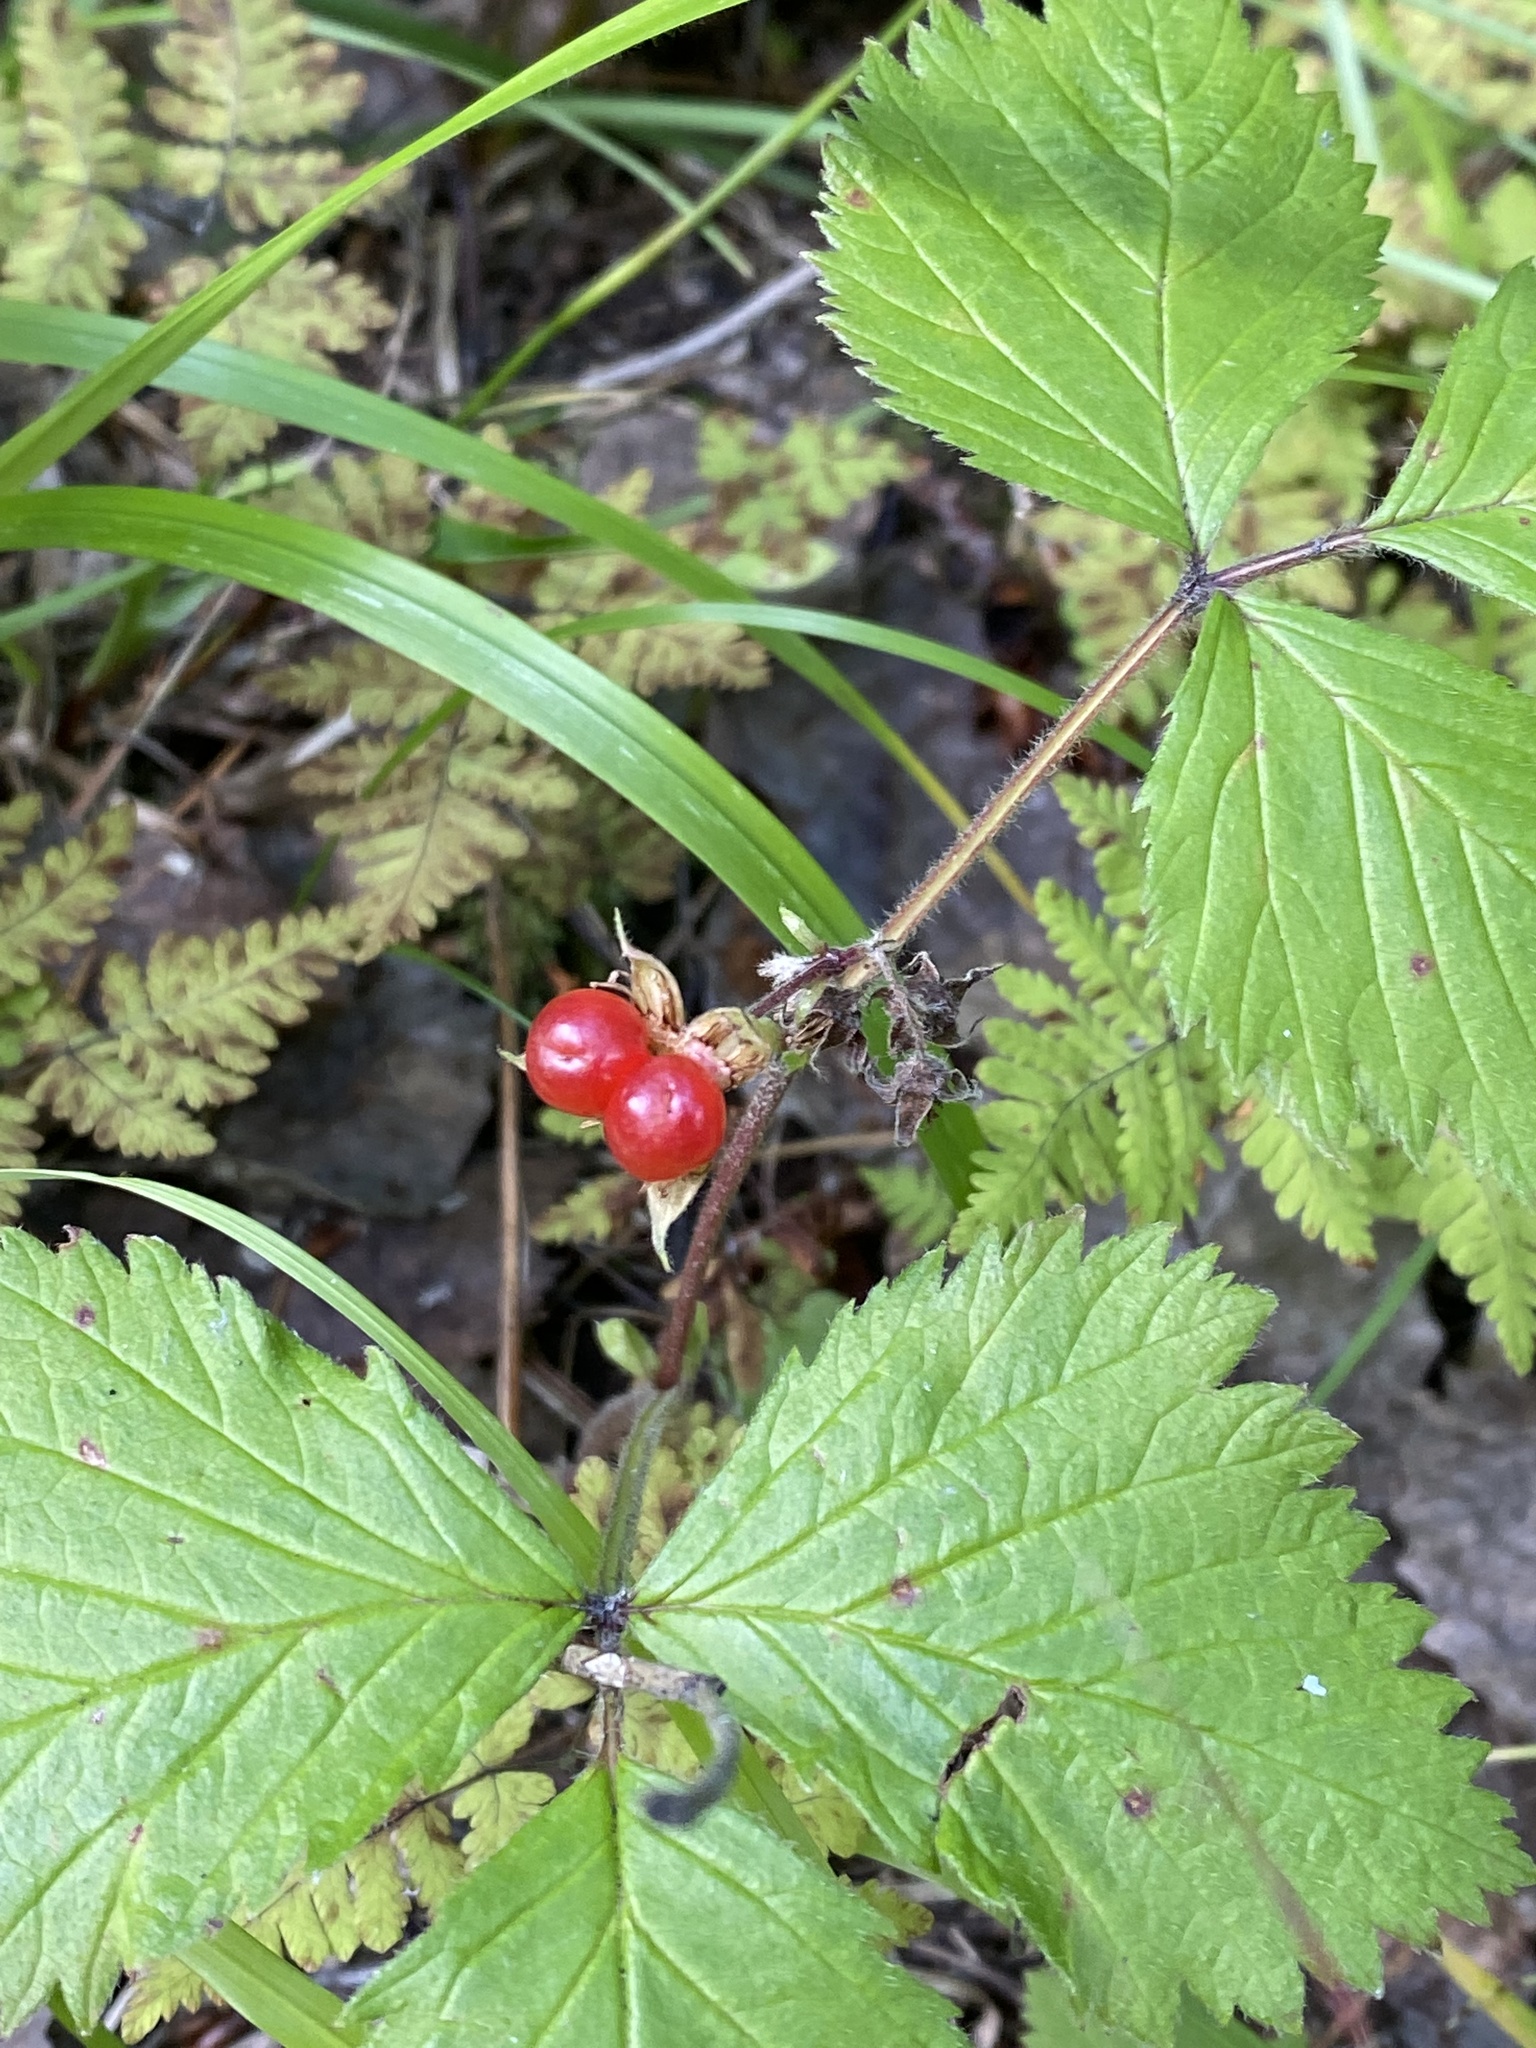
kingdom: Plantae
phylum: Tracheophyta
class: Magnoliopsida
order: Rosales
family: Rosaceae
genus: Rubus
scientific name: Rubus saxatilis
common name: Stone bramble
